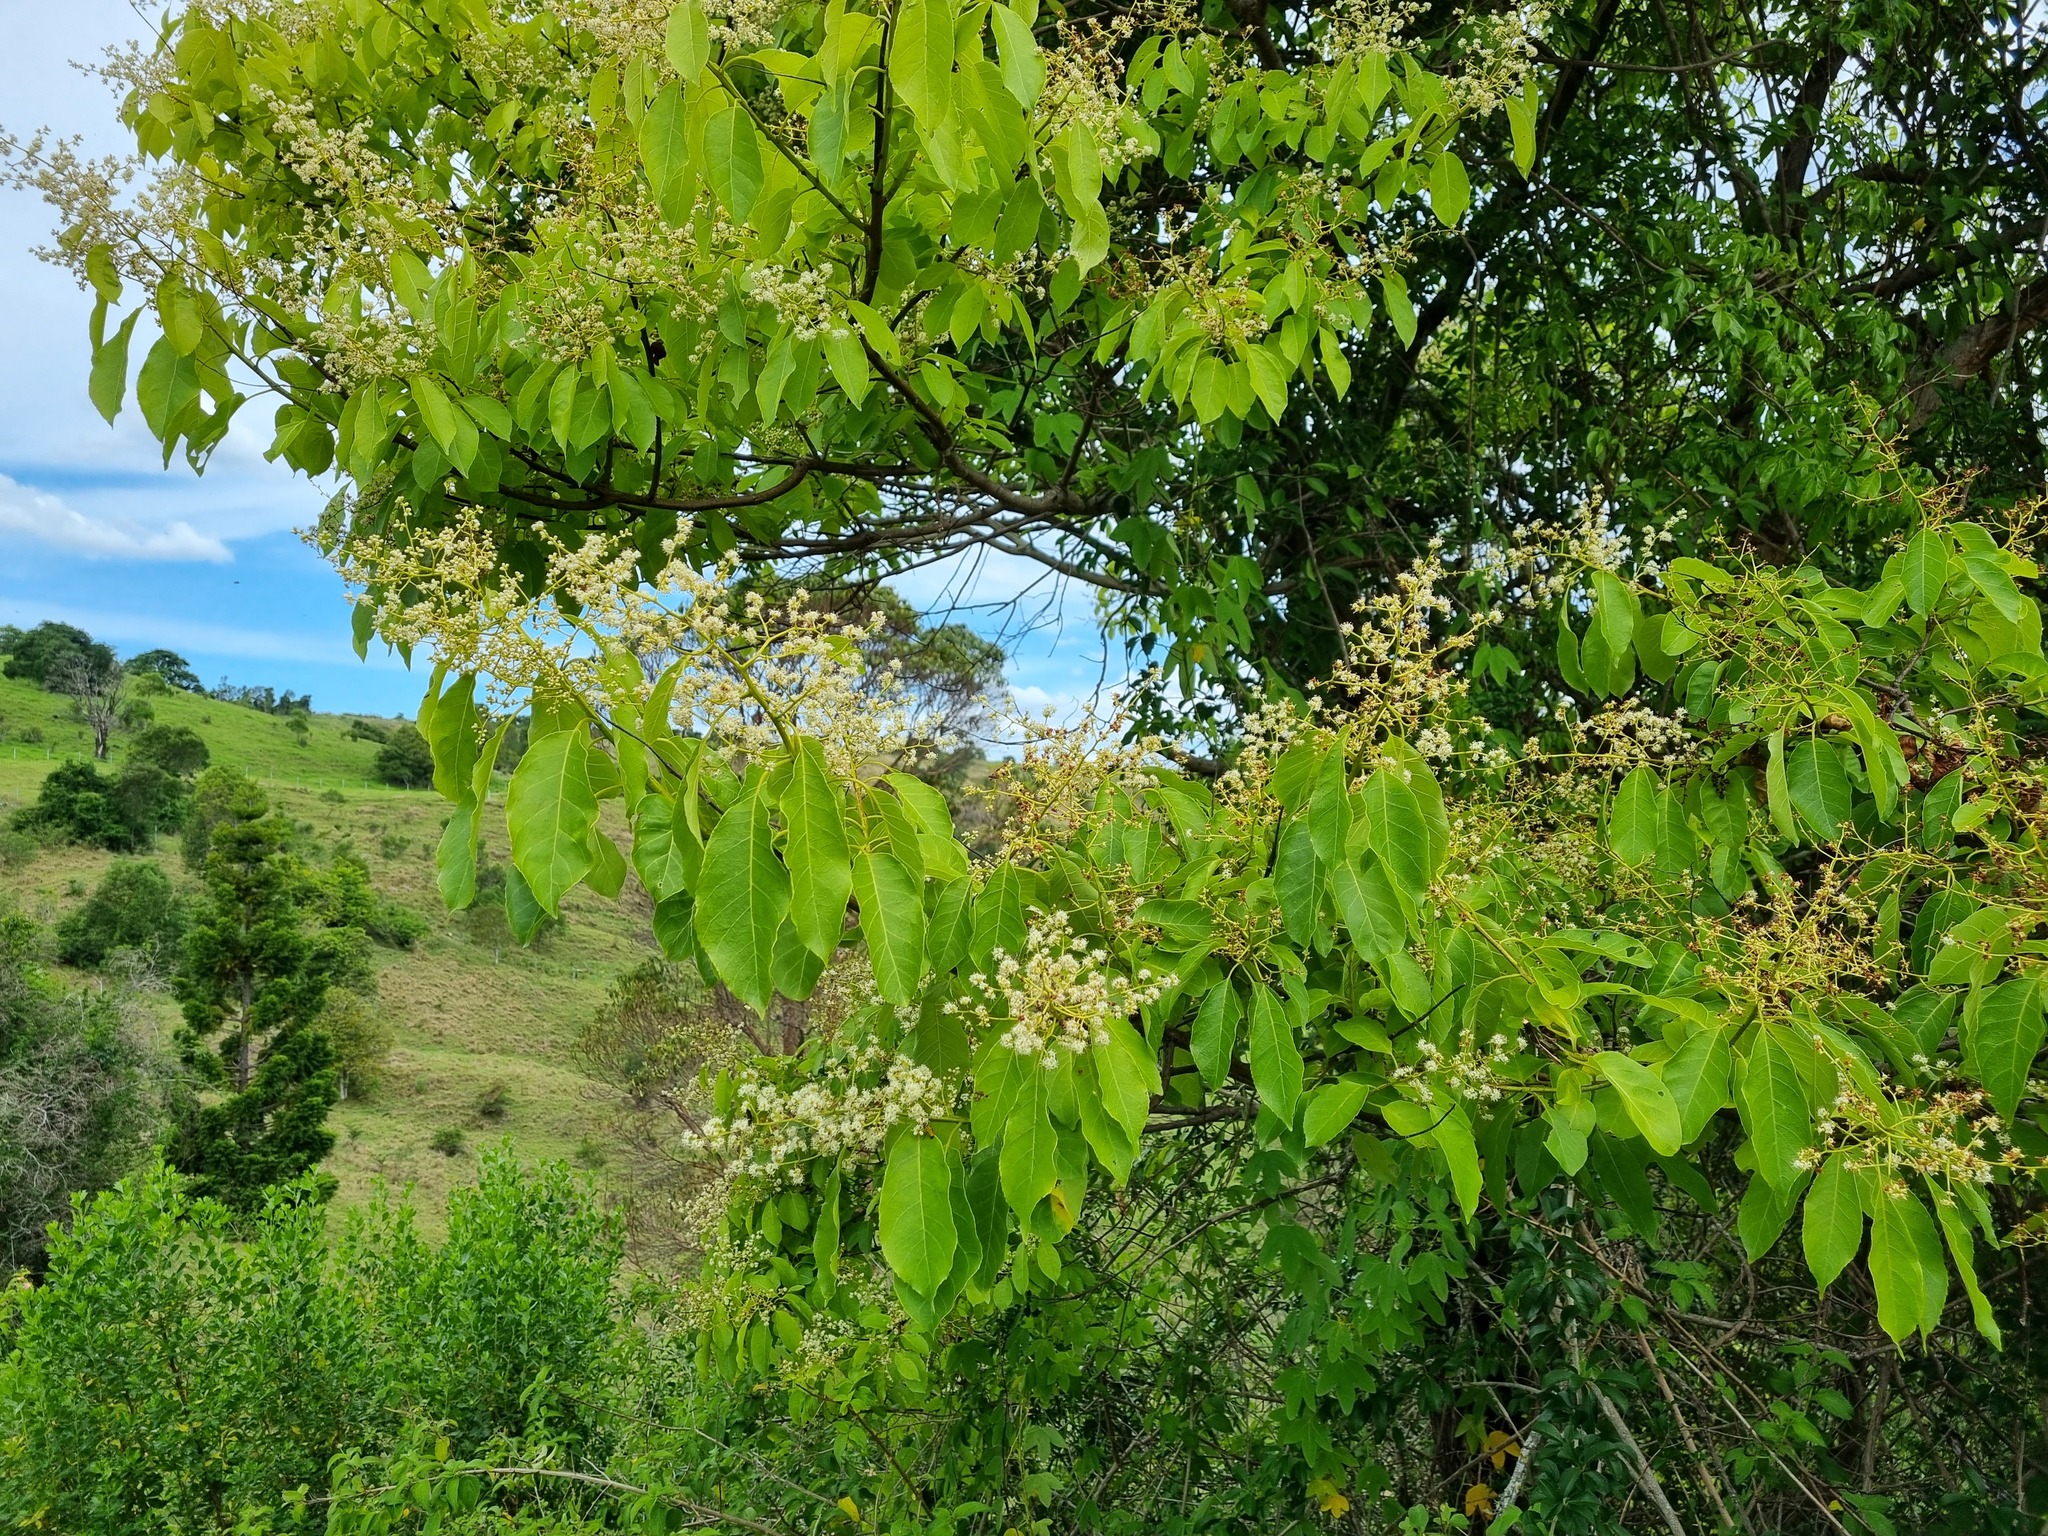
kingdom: Plantae
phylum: Tracheophyta
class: Magnoliopsida
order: Boraginales
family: Ehretiaceae
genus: Ehretia
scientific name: Ehretia acuminata
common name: Kodo wood
